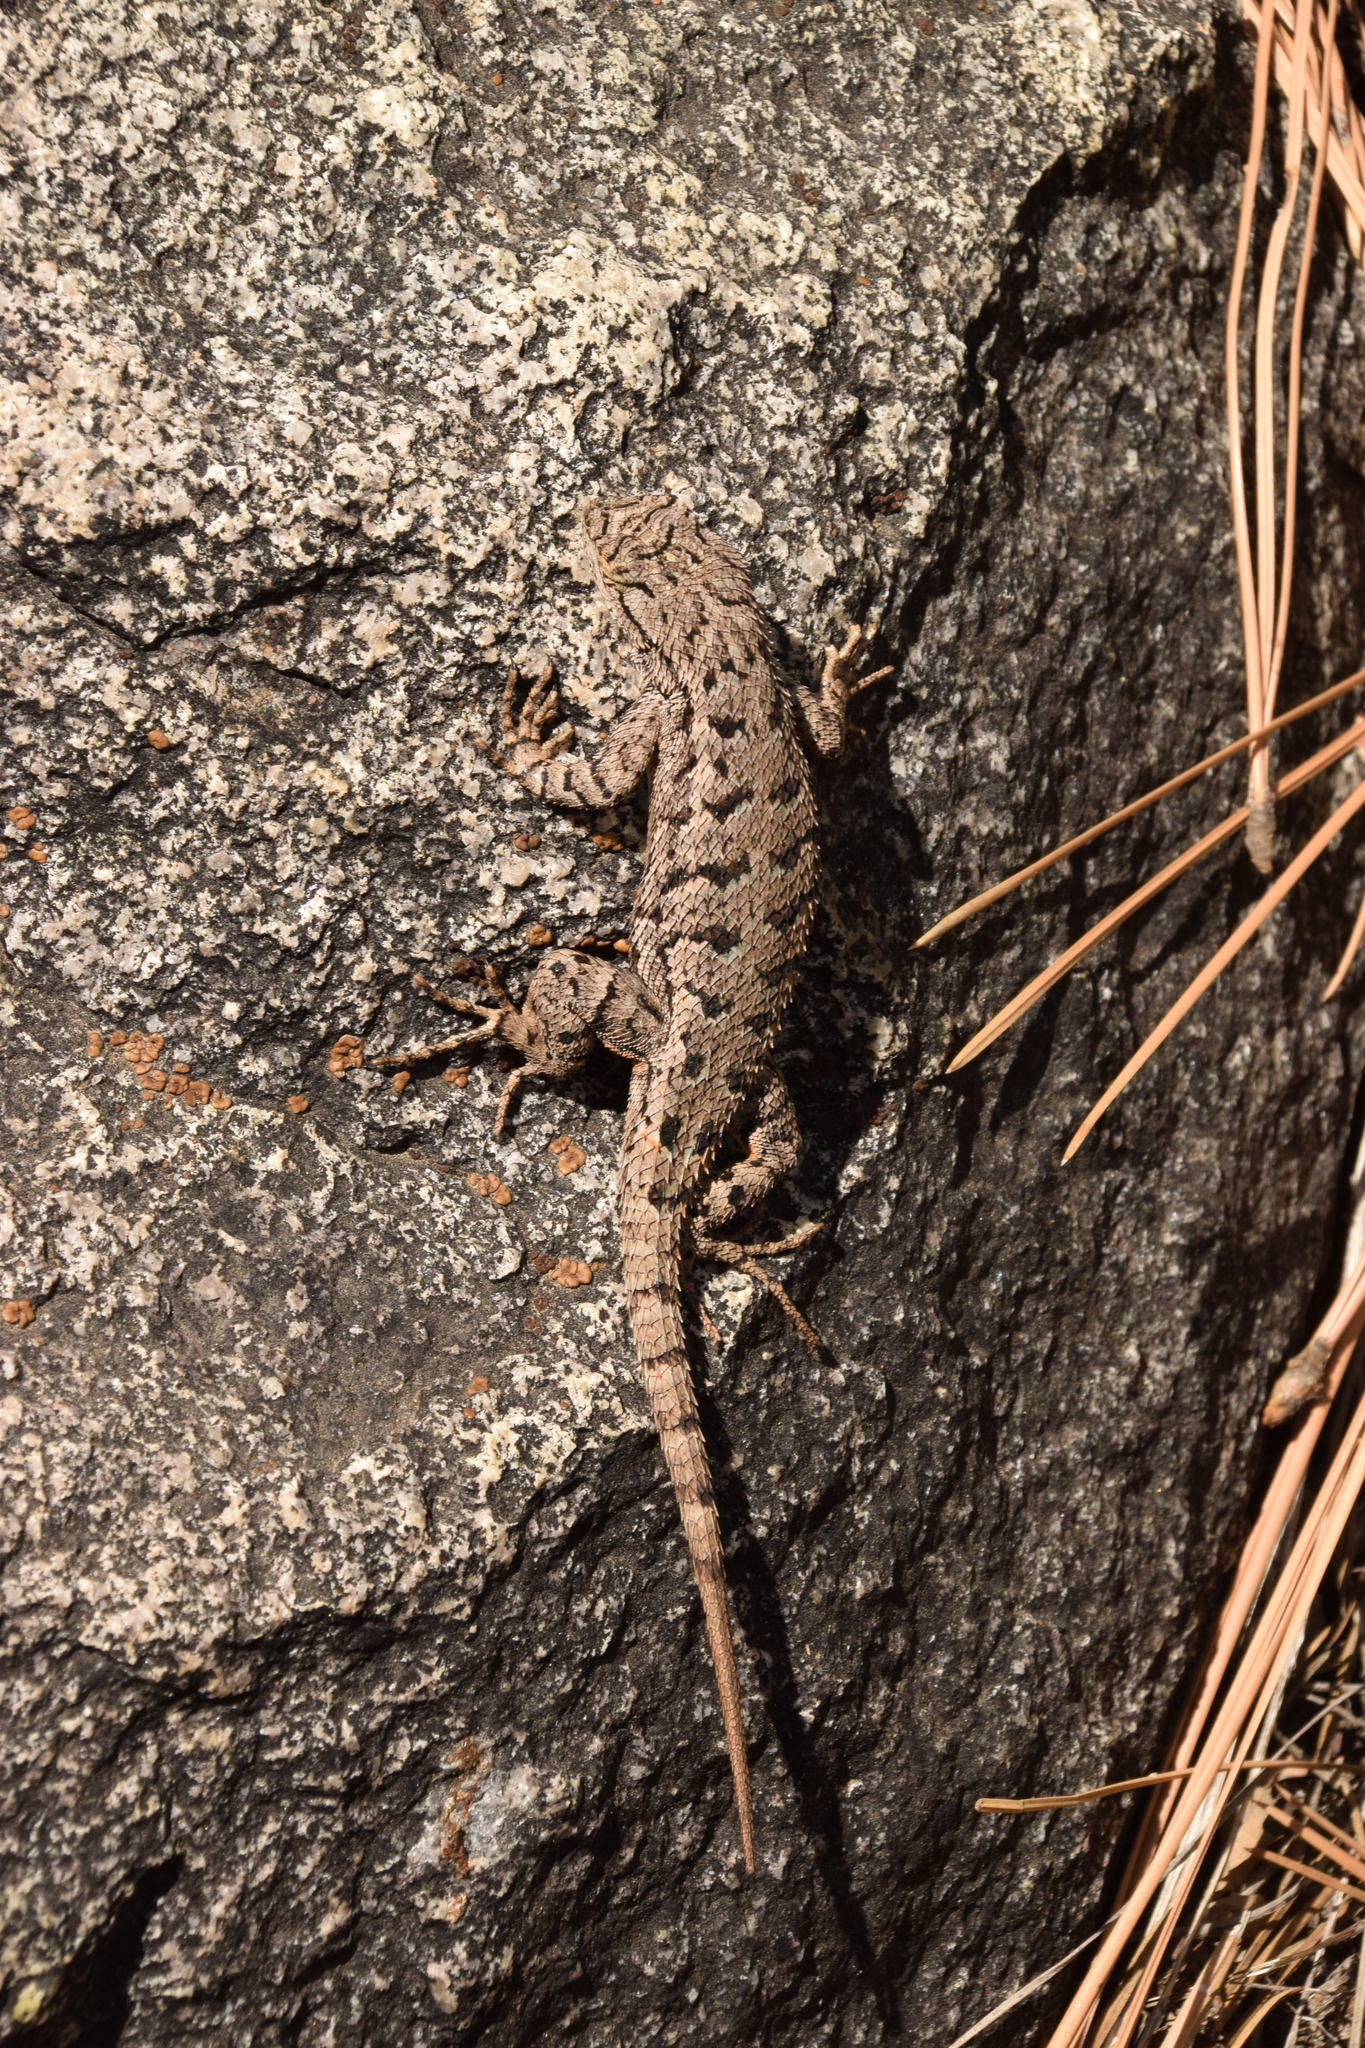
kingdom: Animalia
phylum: Chordata
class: Squamata
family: Phrynosomatidae
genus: Sceloporus
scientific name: Sceloporus occidentalis
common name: Western fence lizard
